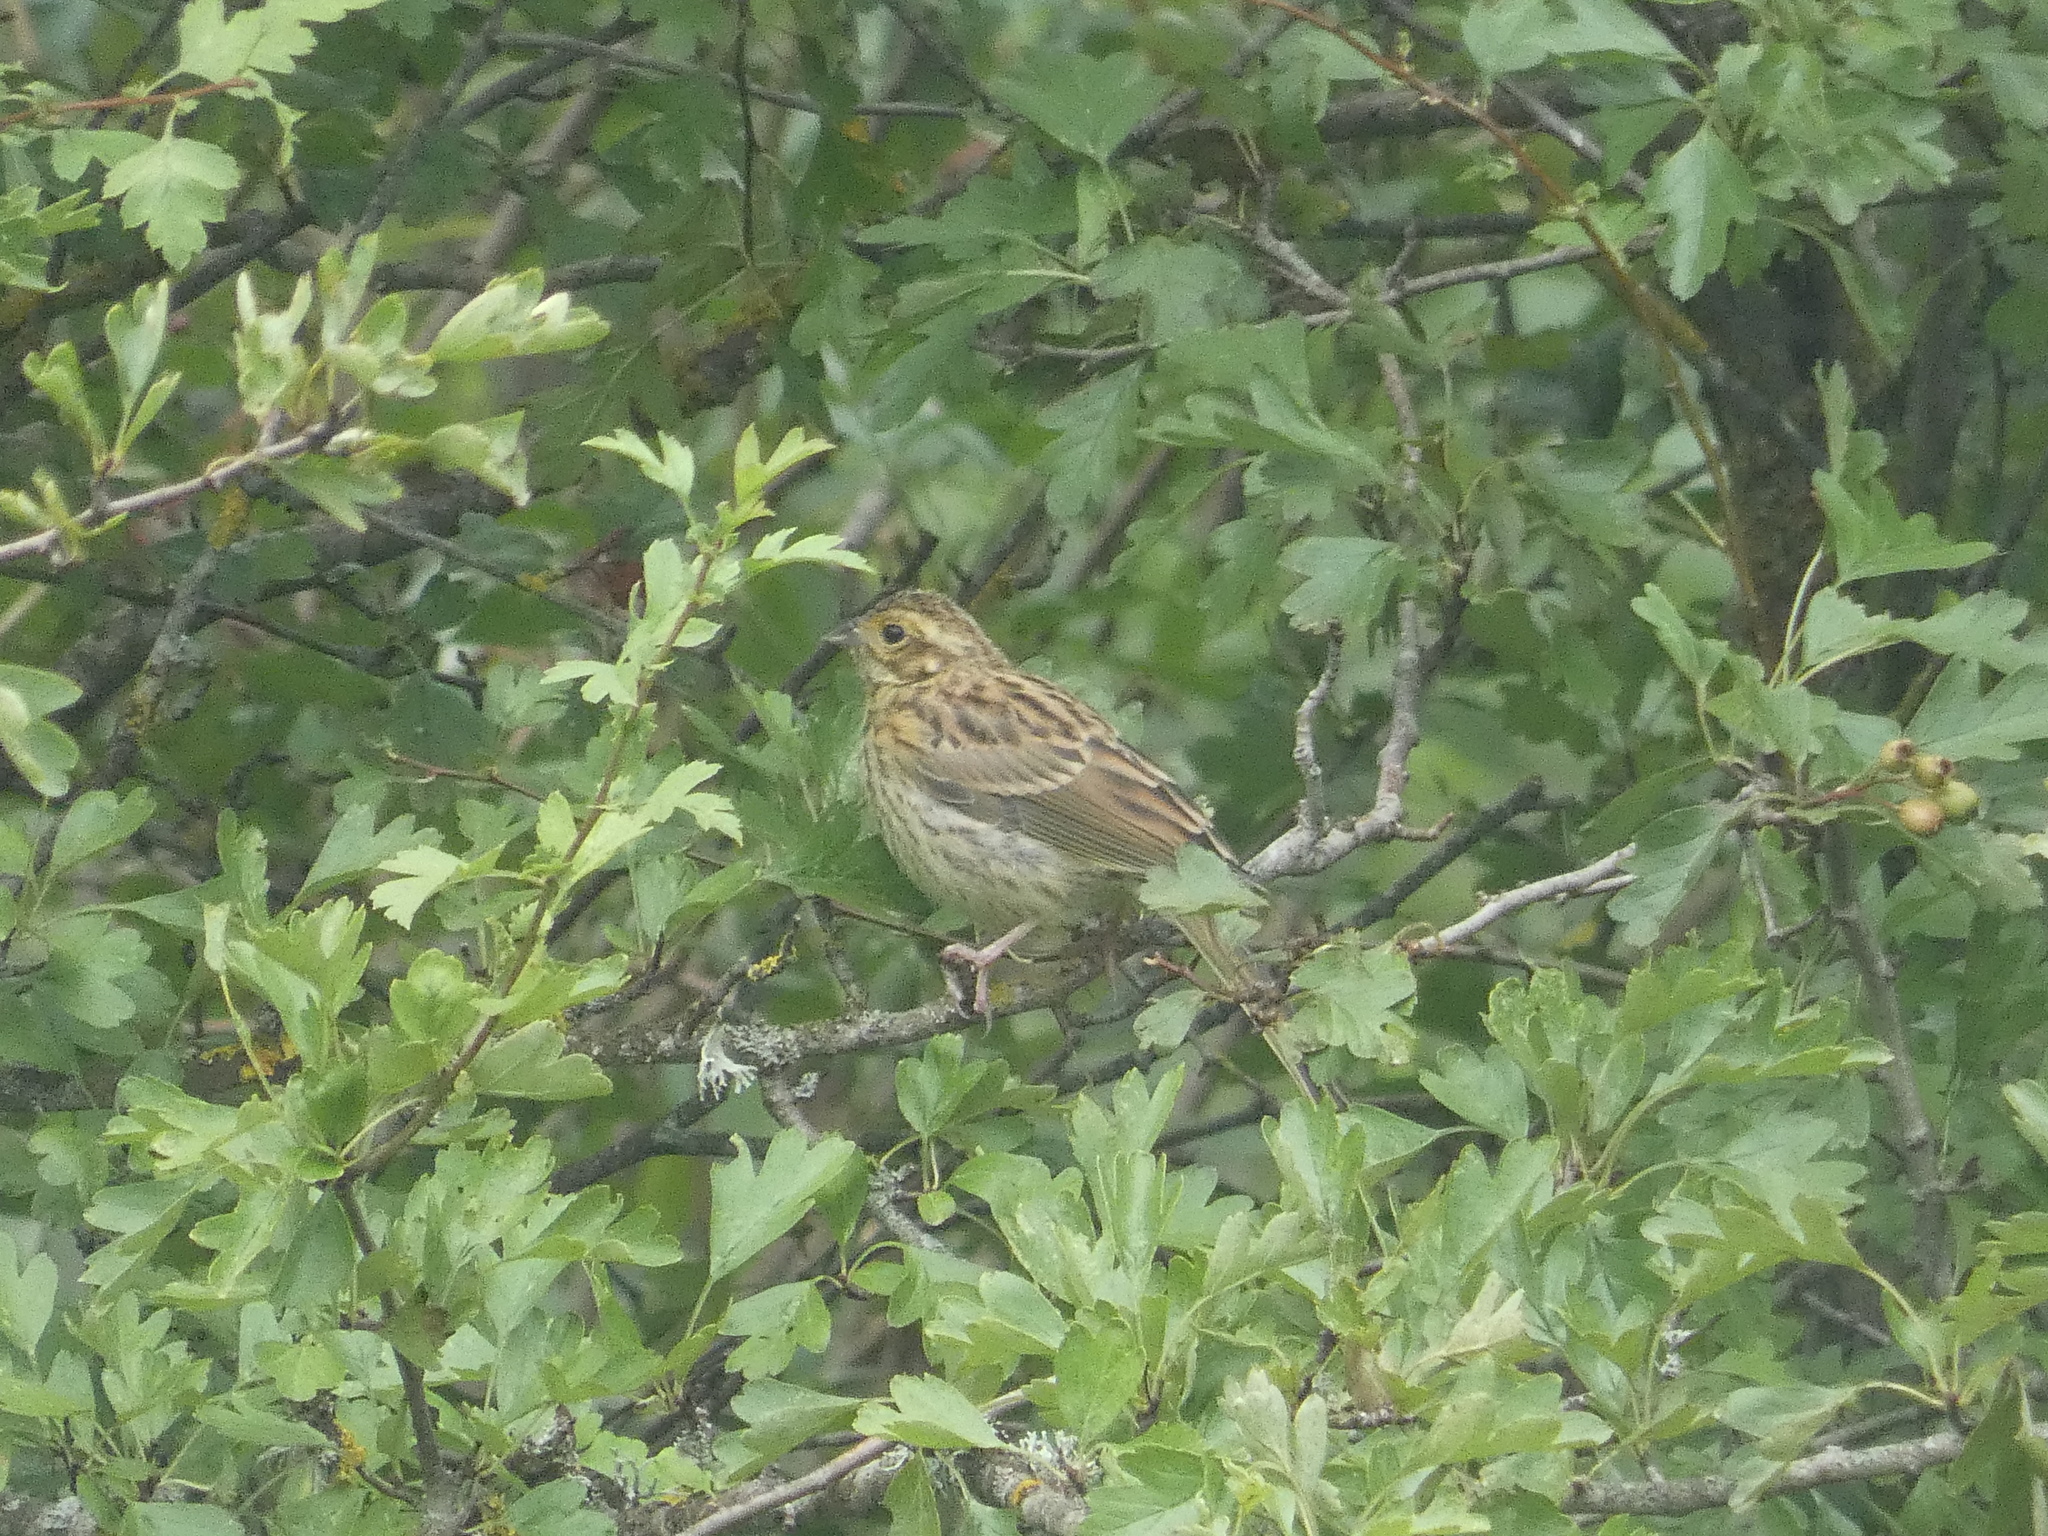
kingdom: Animalia
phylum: Chordata
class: Aves
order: Passeriformes
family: Emberizidae
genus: Emberiza
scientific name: Emberiza cirlus
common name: Cirl bunting
